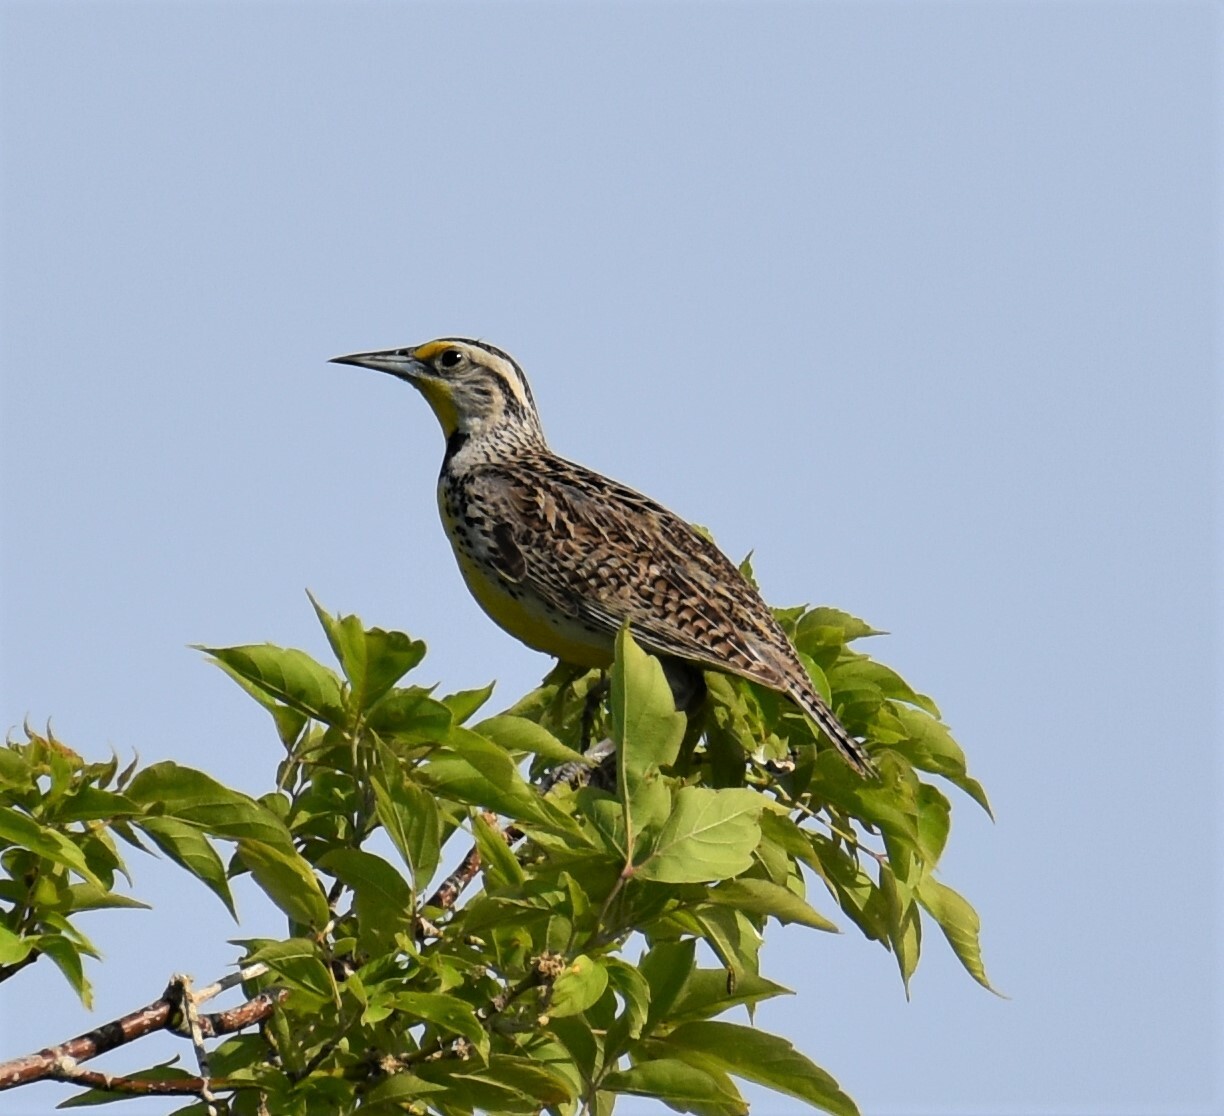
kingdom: Animalia
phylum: Chordata
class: Aves
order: Passeriformes
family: Icteridae
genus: Sturnella
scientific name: Sturnella neglecta
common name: Western meadowlark
